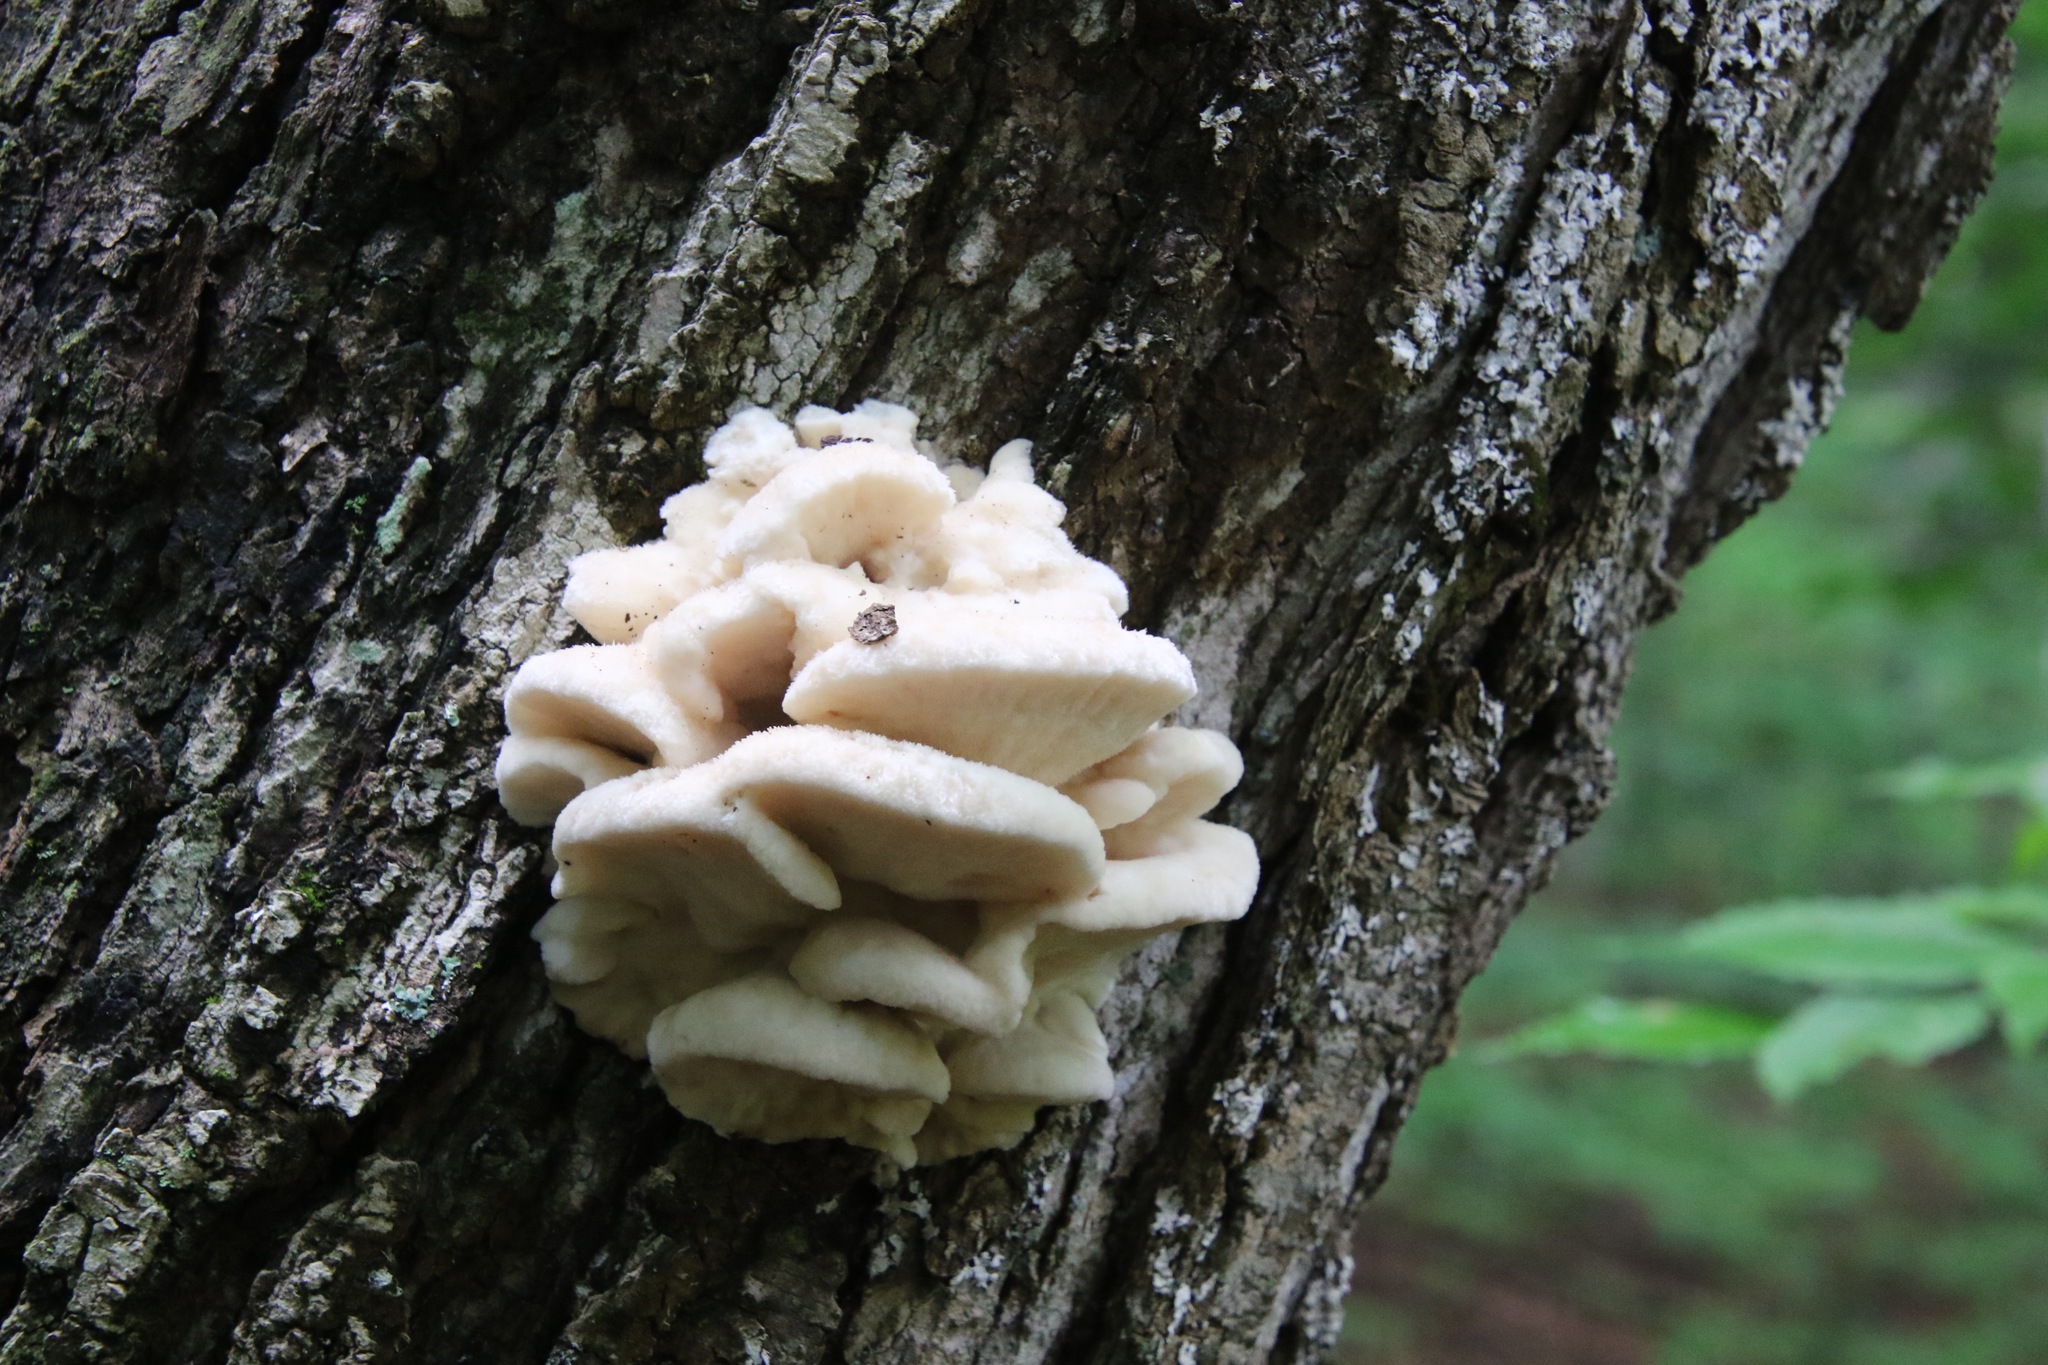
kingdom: Fungi
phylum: Basidiomycota
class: Agaricomycetes
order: Polyporales
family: Meruliaceae
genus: Climacodon
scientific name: Climacodon septentrionalis
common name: Northern tooth
